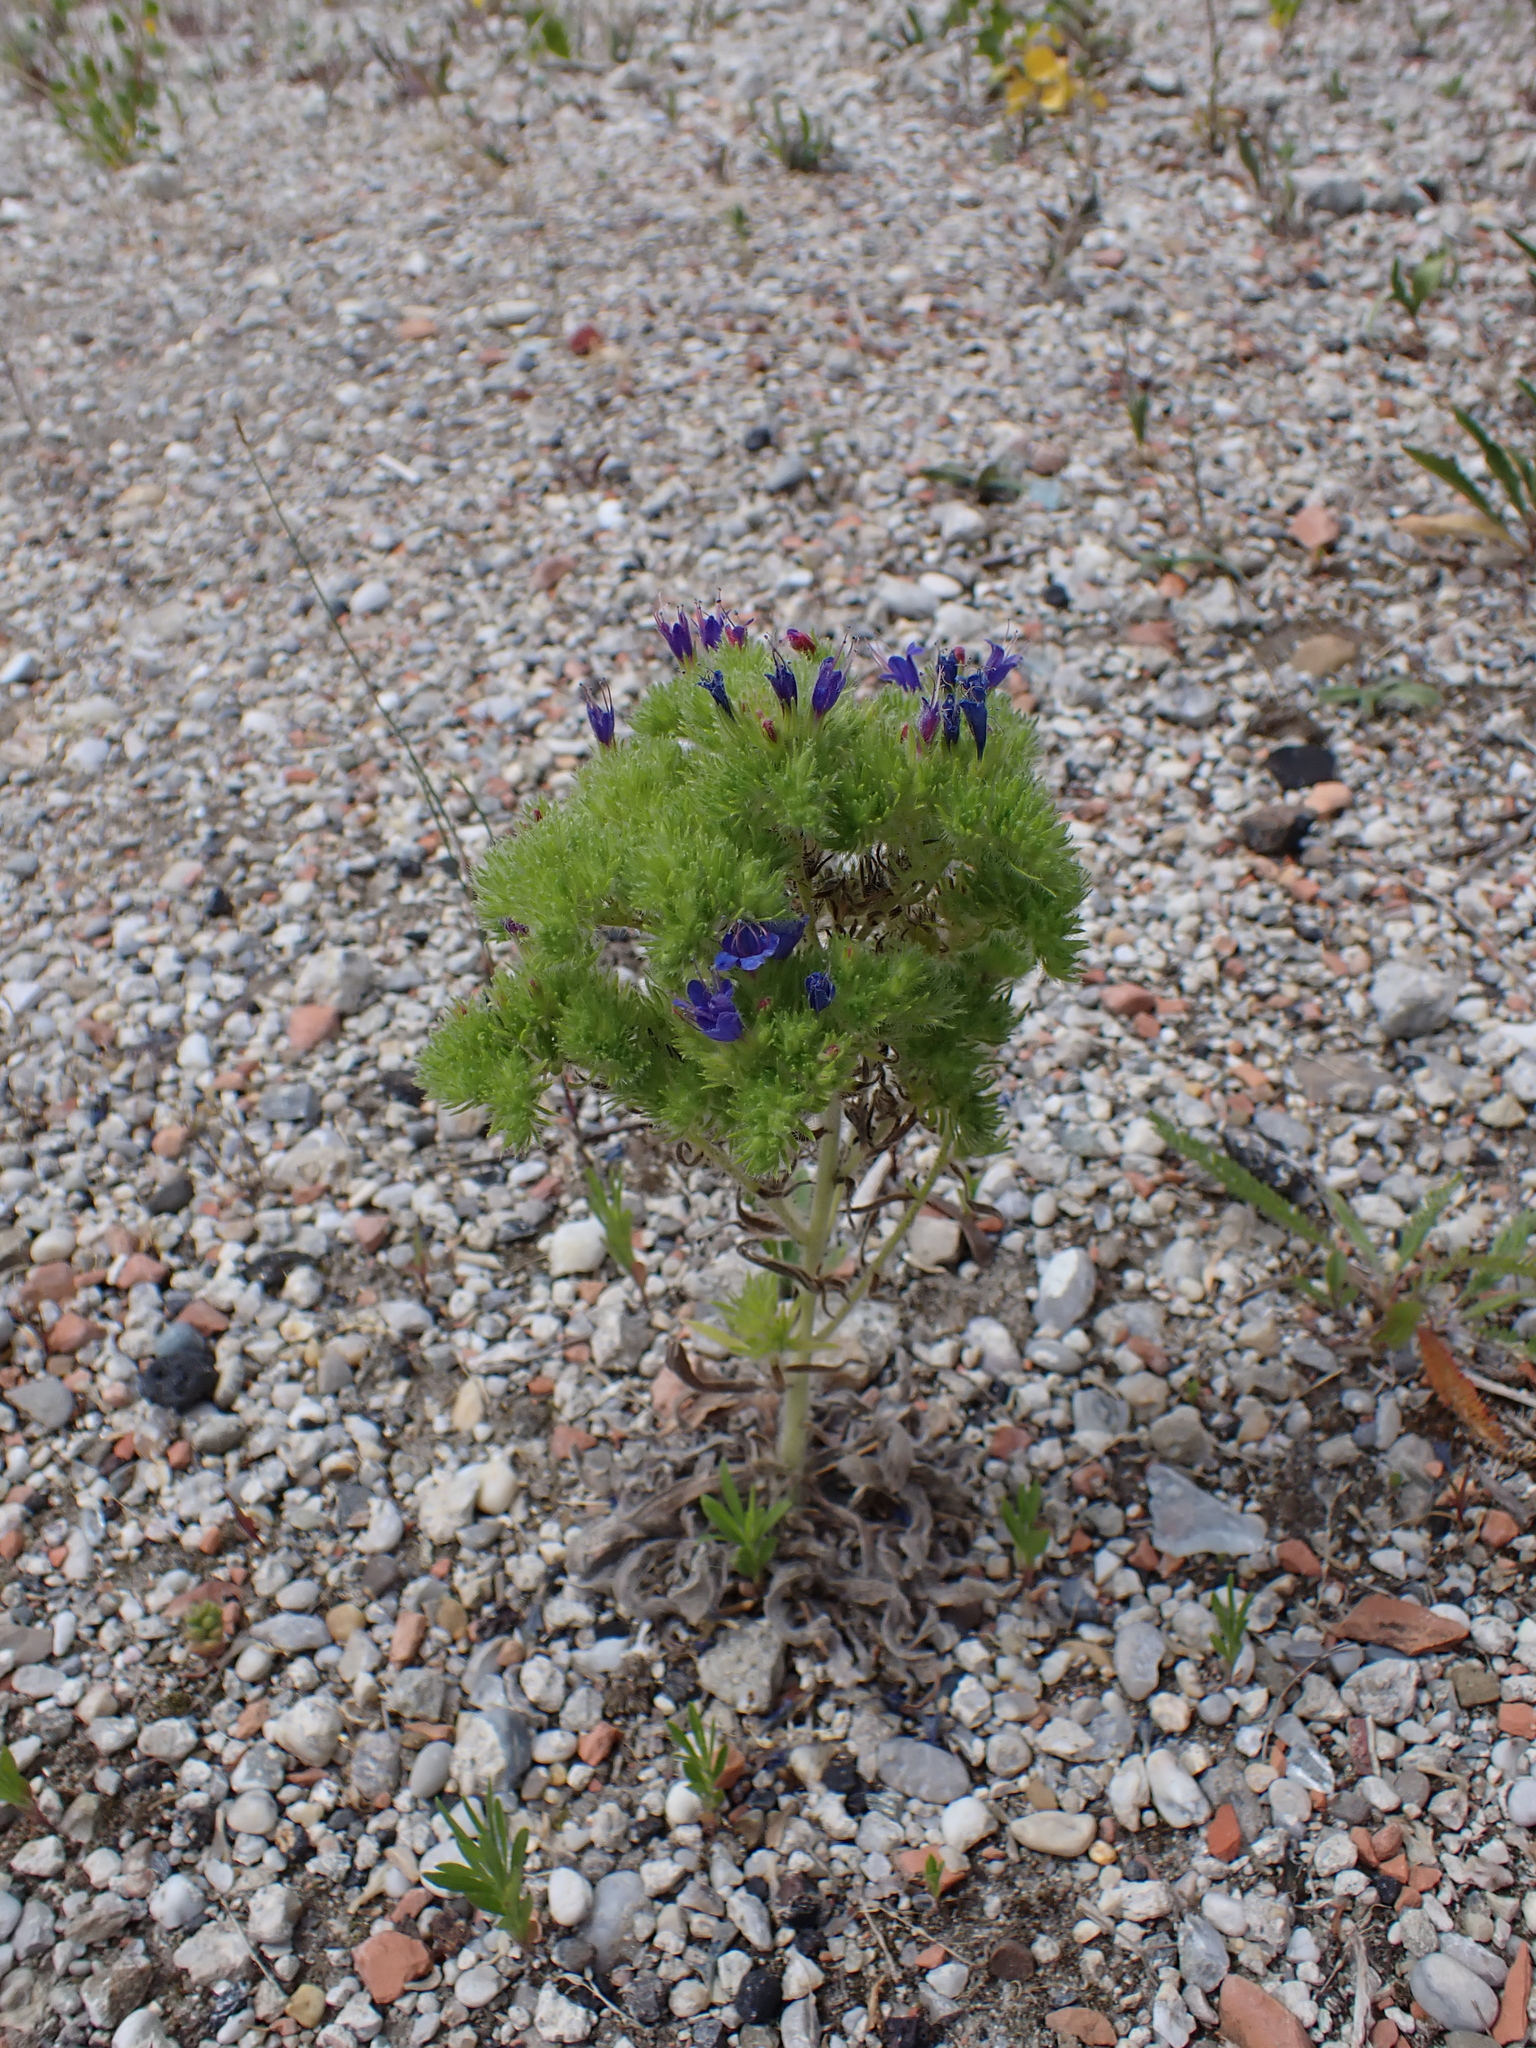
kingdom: Animalia
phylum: Arthropoda
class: Arachnida
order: Trombidiformes
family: Eriophyidae
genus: Aceria
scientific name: Aceria echii
